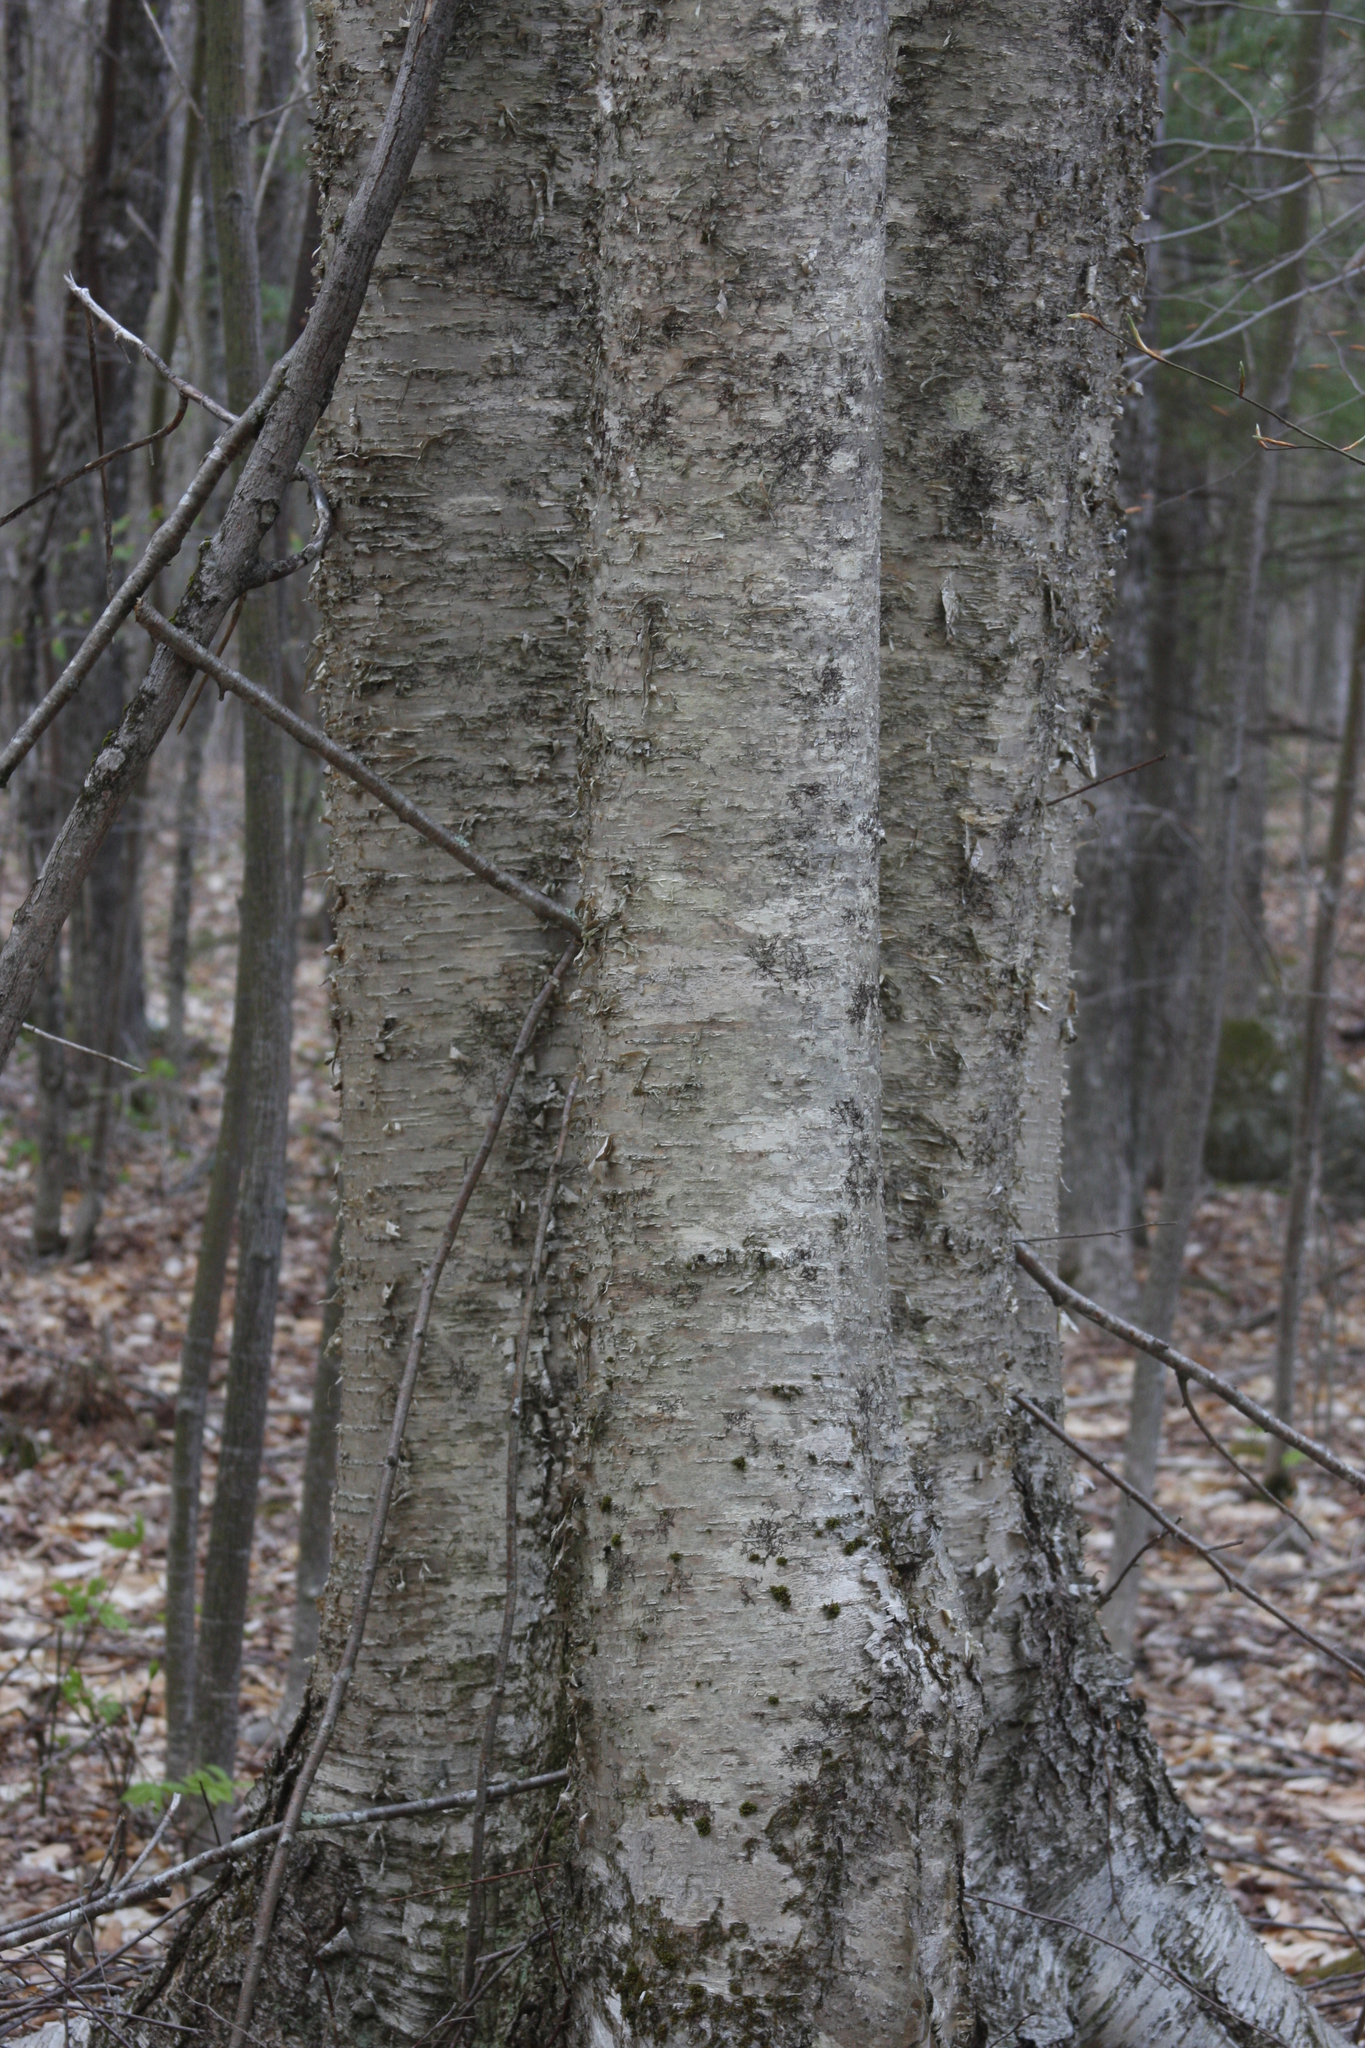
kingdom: Plantae
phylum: Tracheophyta
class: Magnoliopsida
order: Fagales
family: Betulaceae
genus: Betula
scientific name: Betula alleghaniensis
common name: Yellow birch
